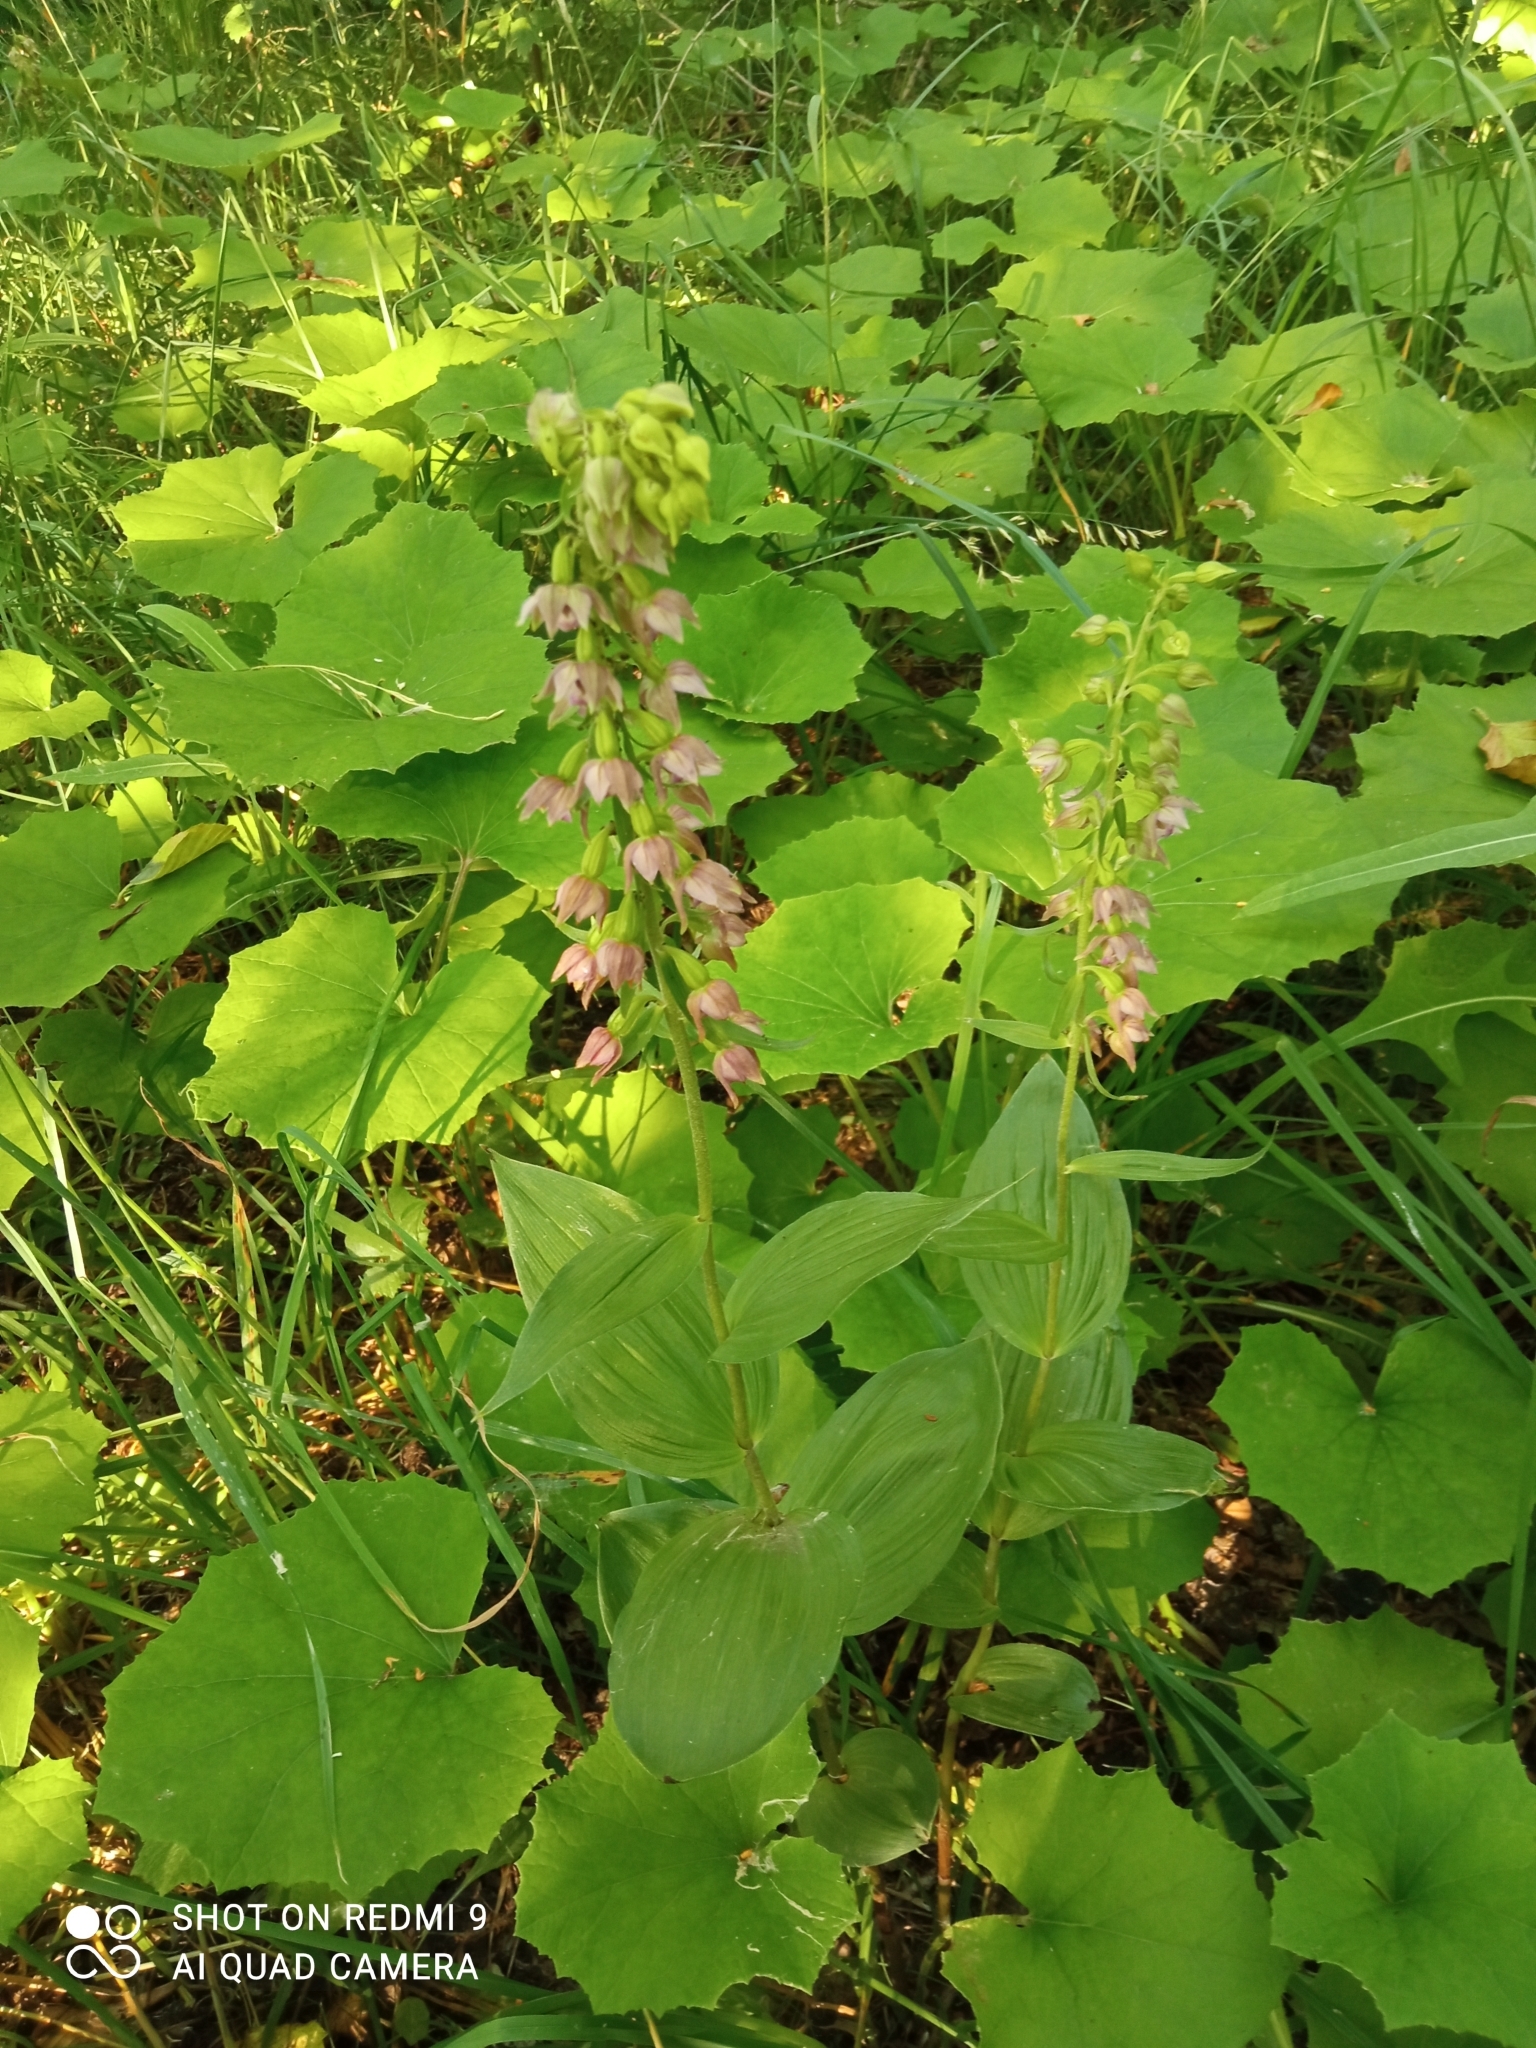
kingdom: Plantae
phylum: Tracheophyta
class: Liliopsida
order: Asparagales
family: Orchidaceae
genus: Epipactis
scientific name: Epipactis helleborine
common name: Broad-leaved helleborine
